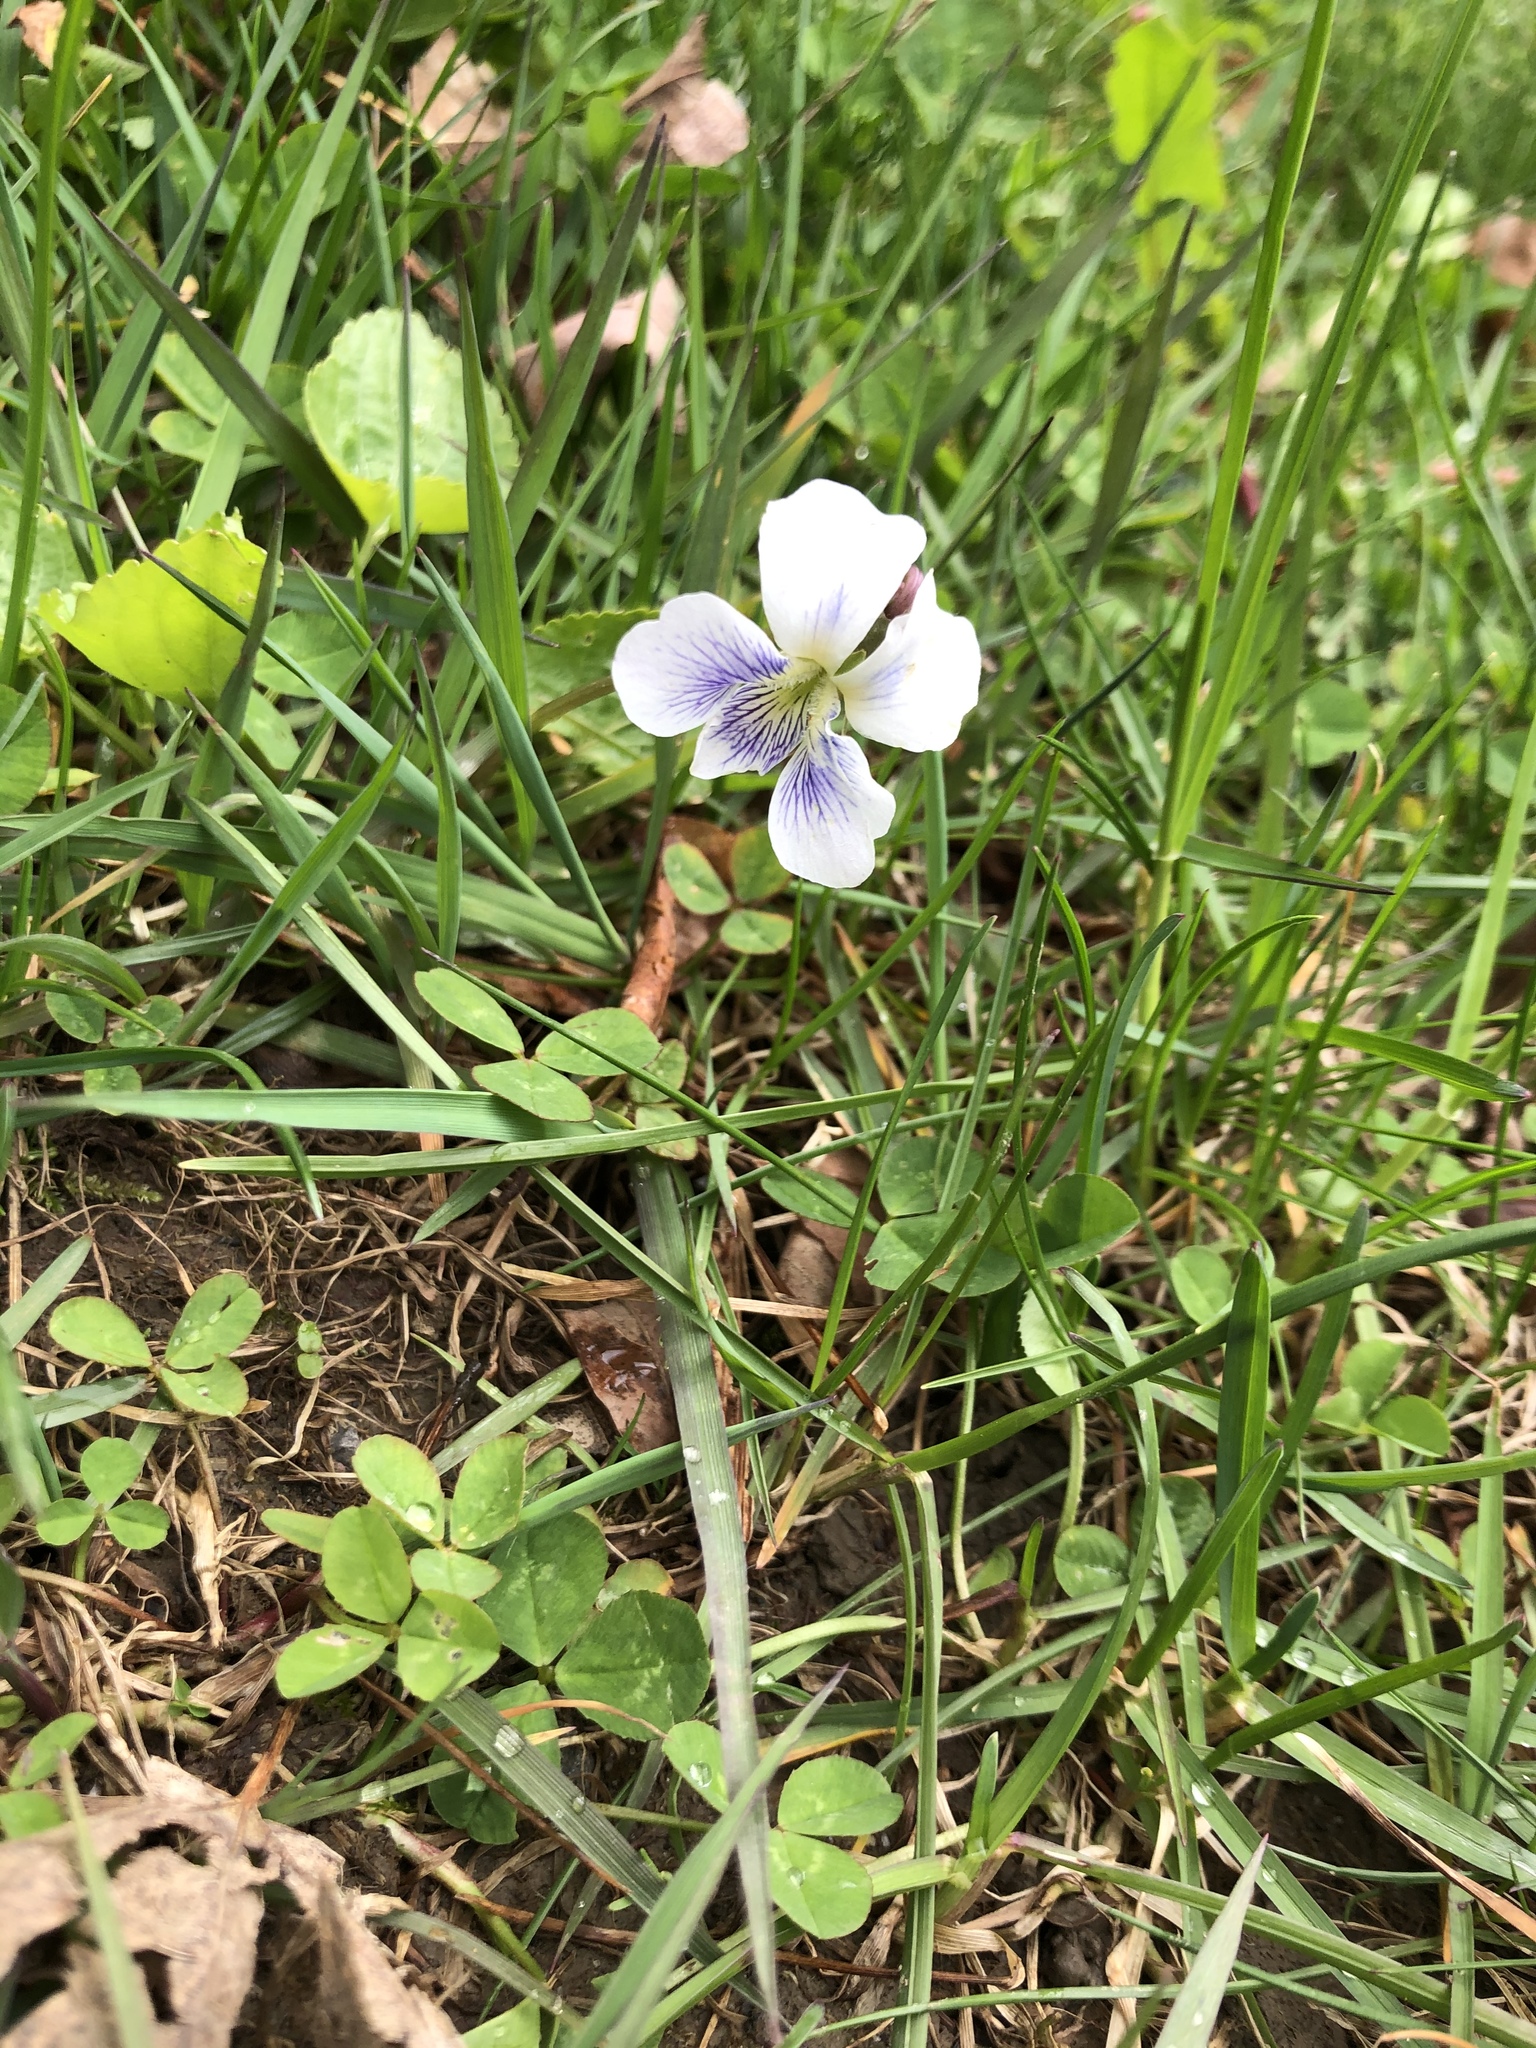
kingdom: Plantae
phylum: Tracheophyta
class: Magnoliopsida
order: Malpighiales
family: Violaceae
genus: Viola
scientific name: Viola sororia
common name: Dooryard violet
